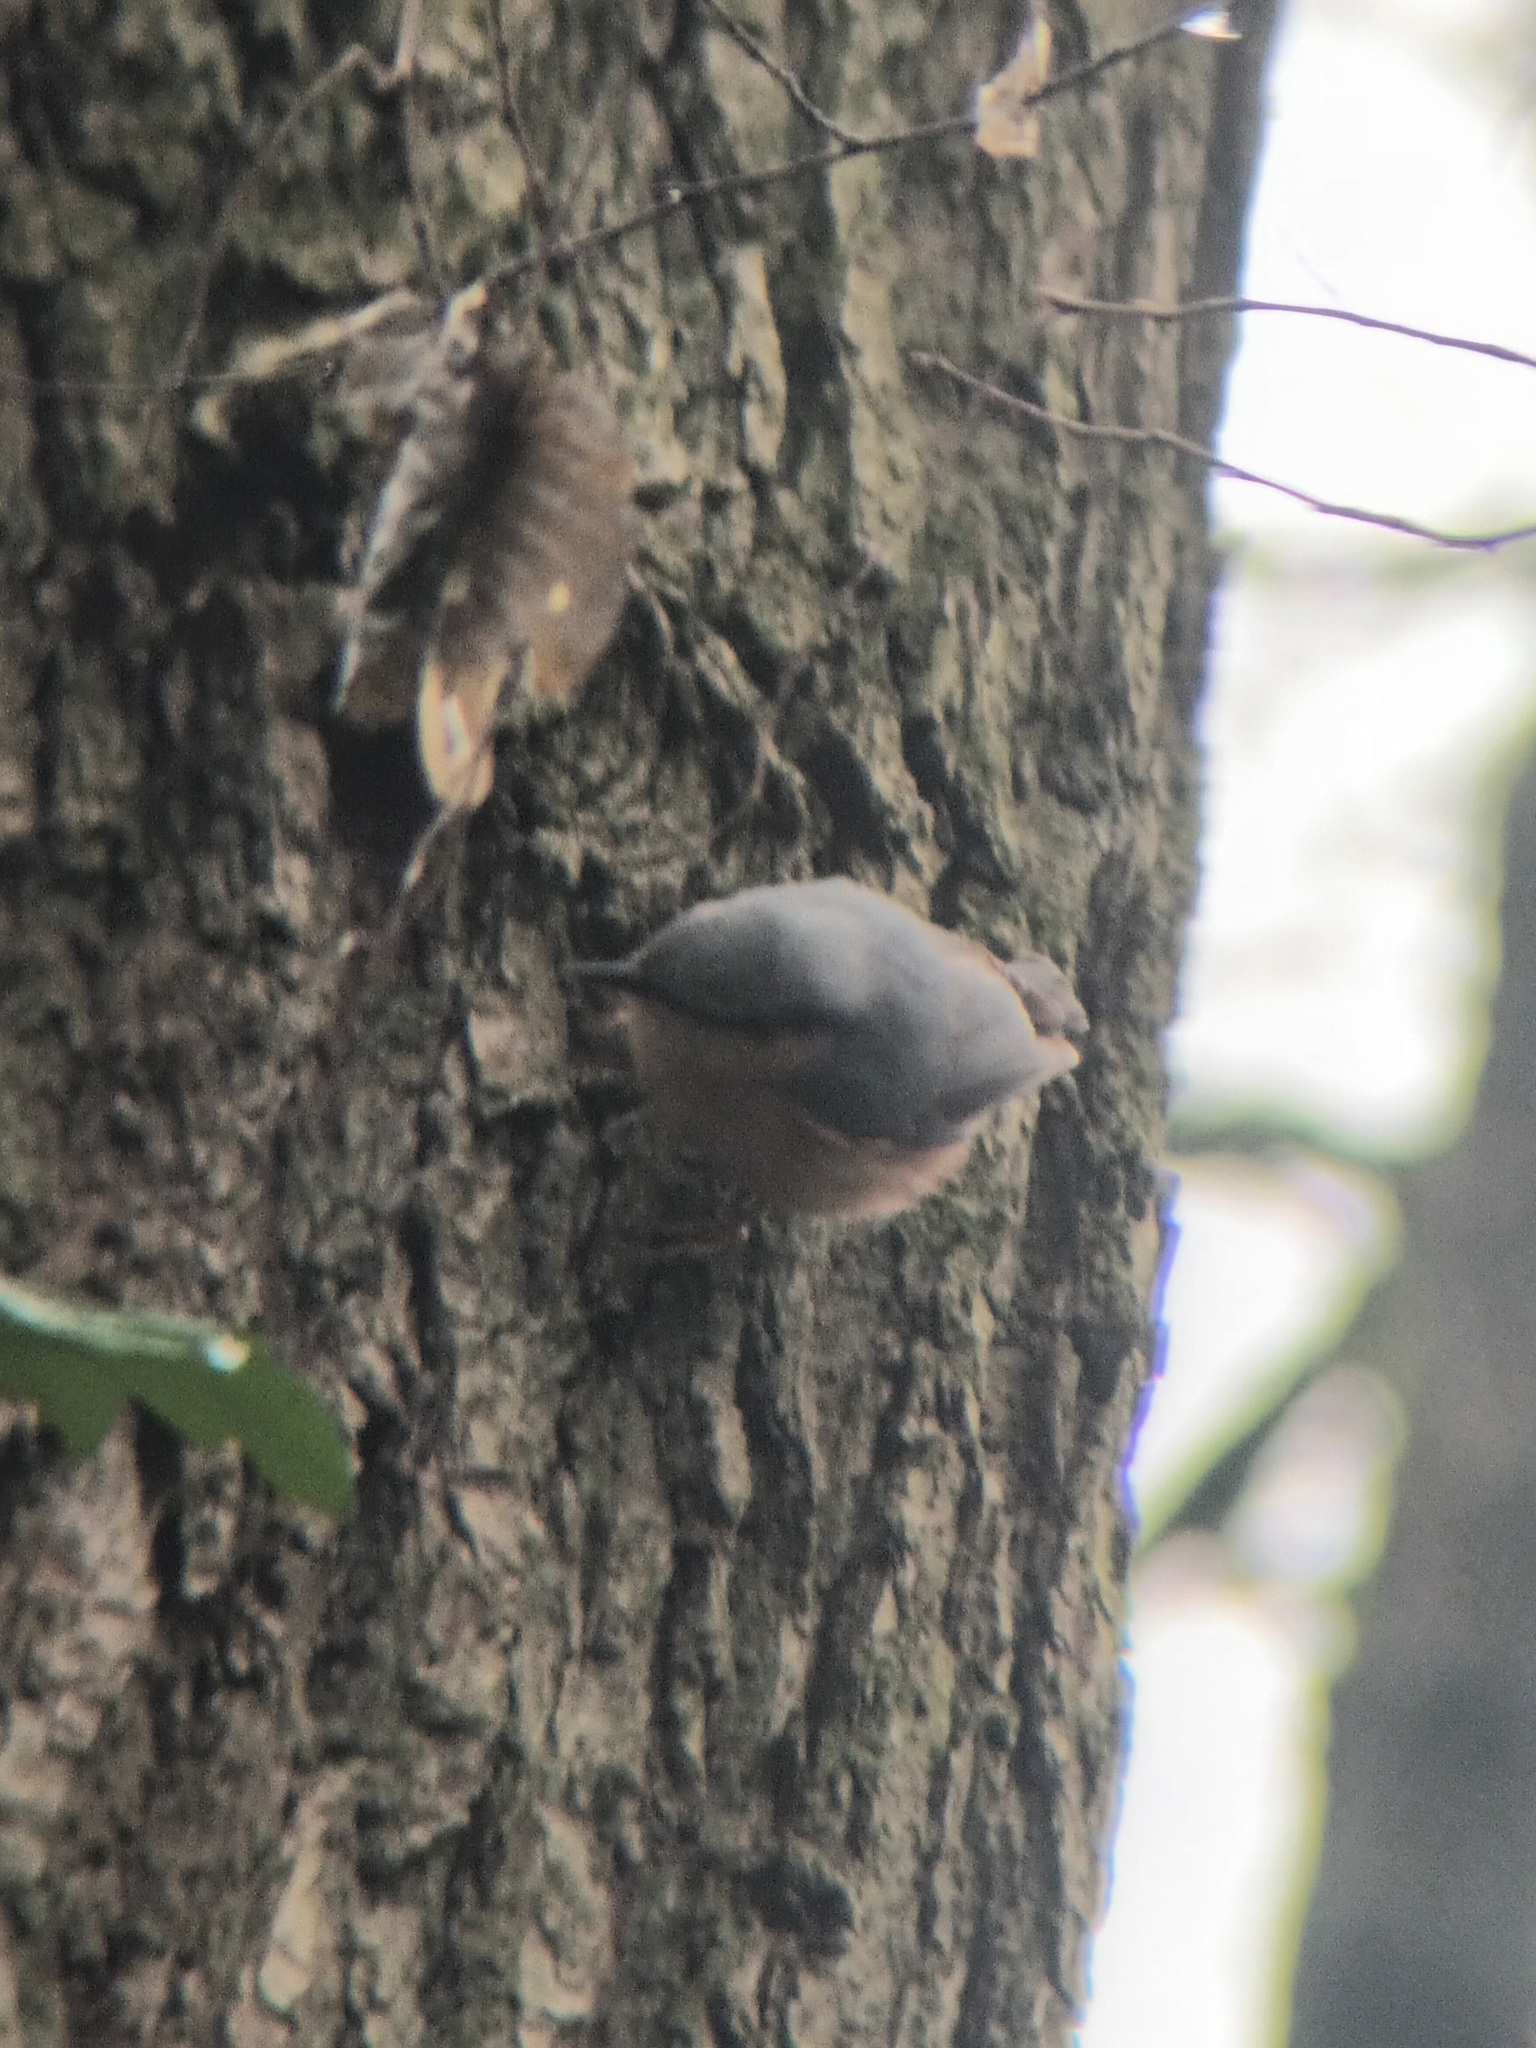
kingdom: Animalia
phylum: Chordata
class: Aves
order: Passeriformes
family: Sittidae
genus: Sitta
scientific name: Sitta europaea
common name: Eurasian nuthatch
